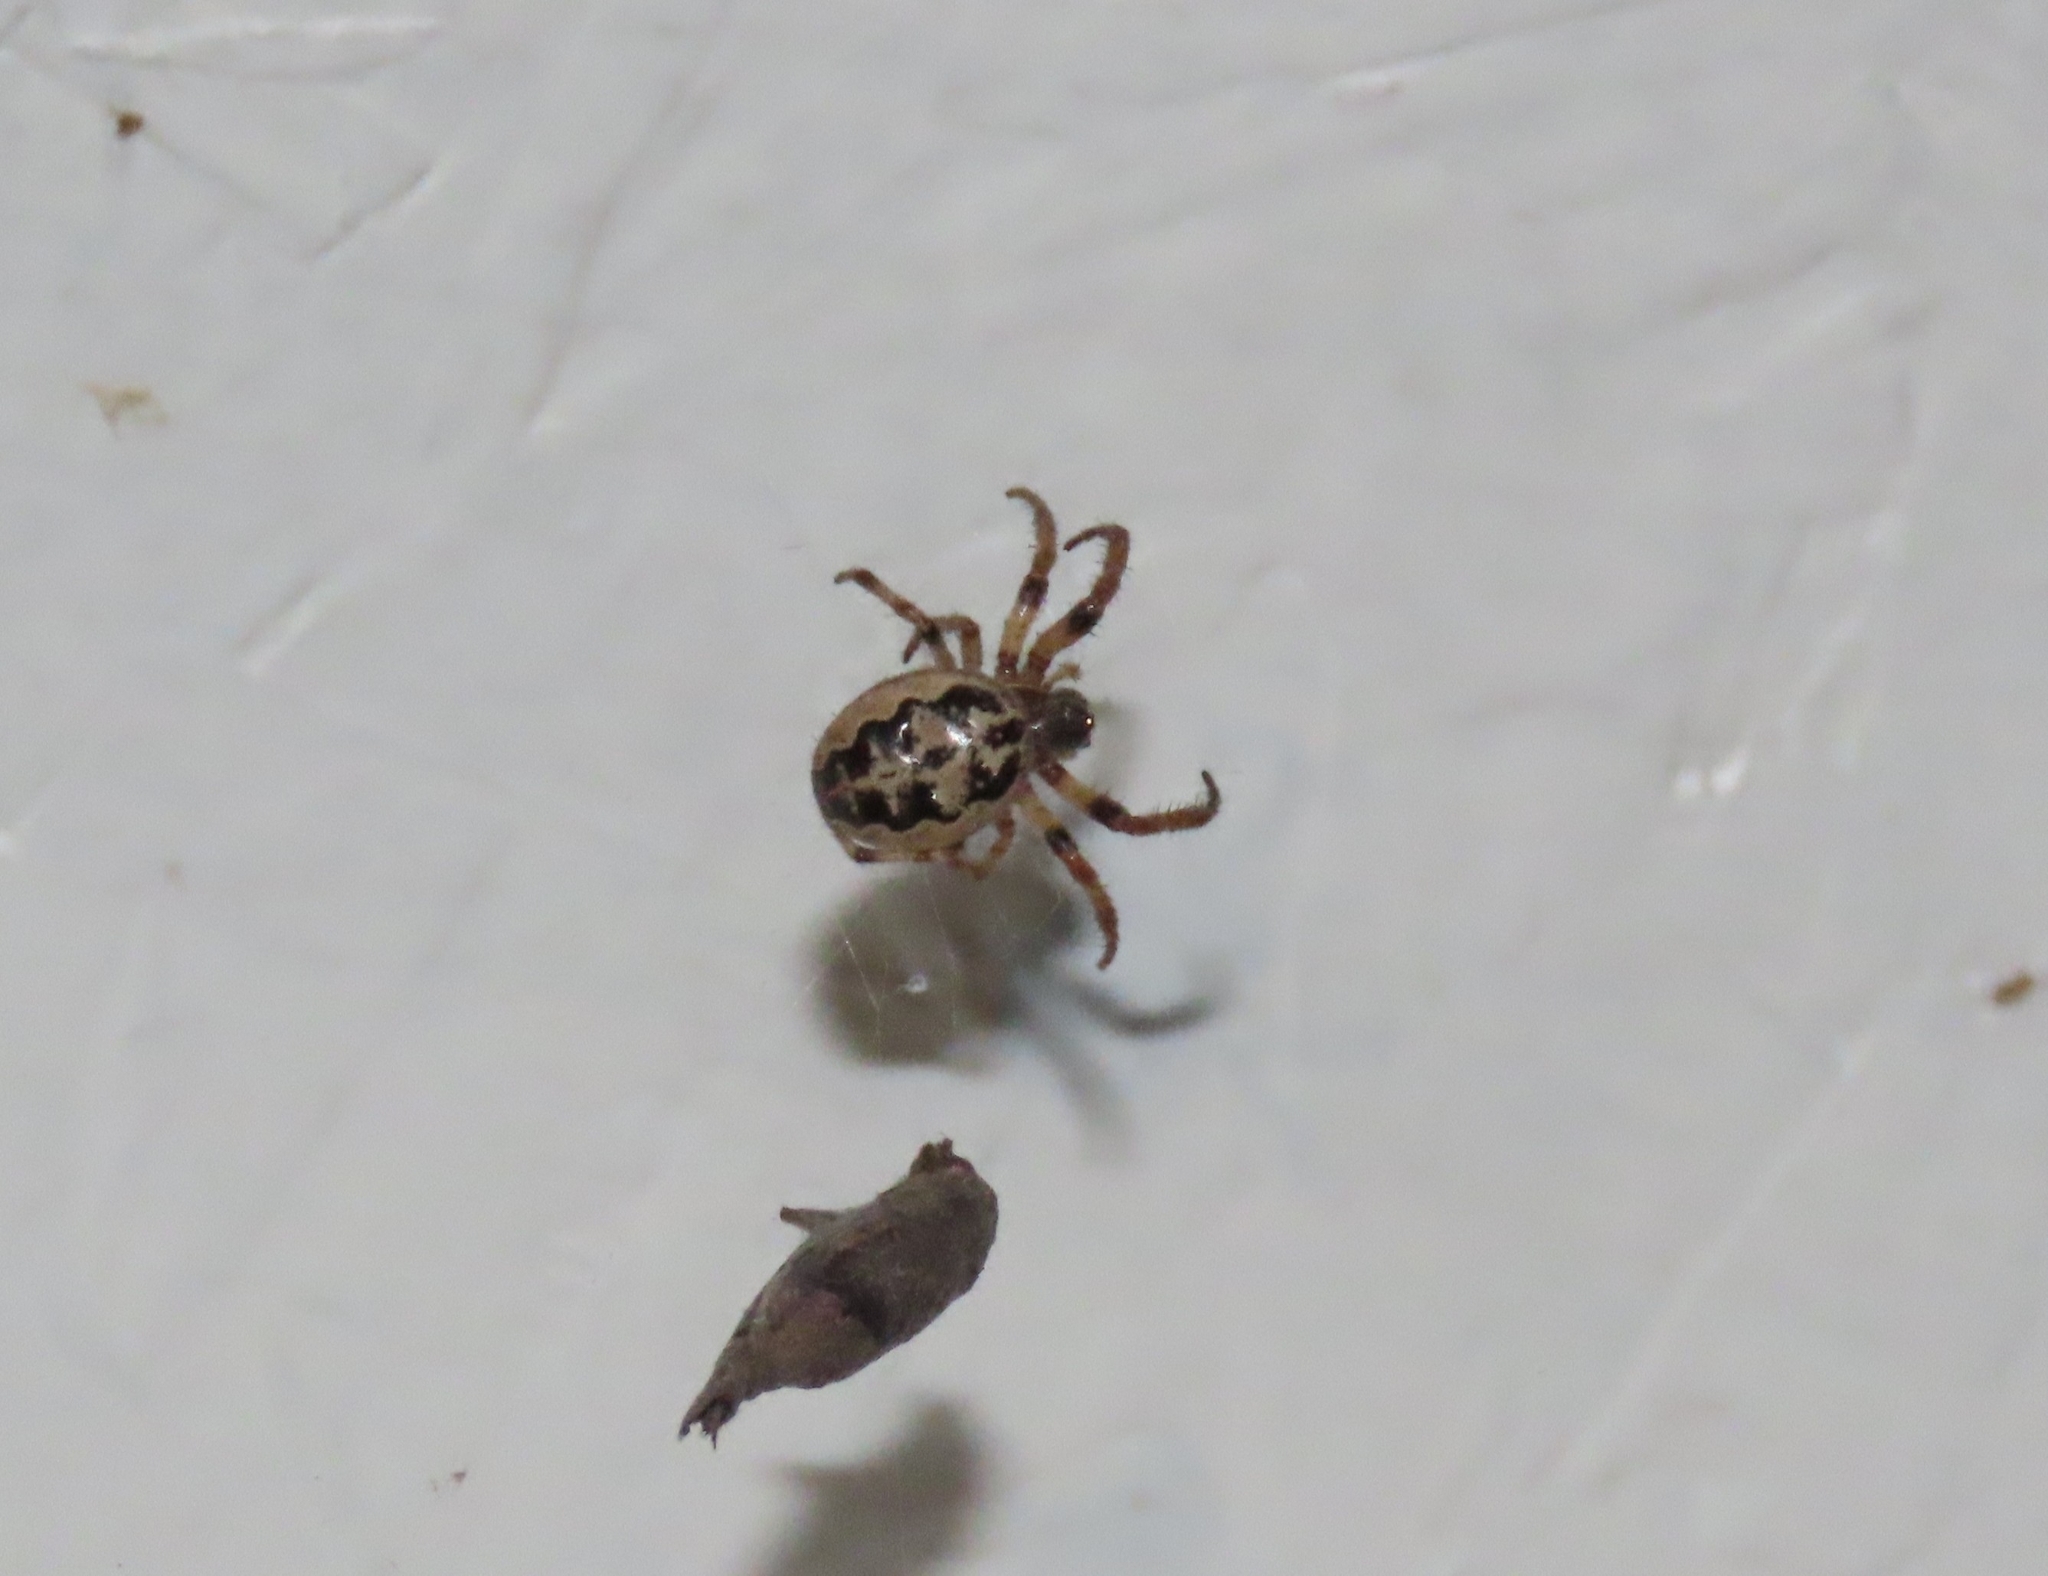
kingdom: Animalia
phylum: Arthropoda
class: Arachnida
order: Araneae
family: Araneidae
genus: Larinioides
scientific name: Larinioides cornutus
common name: Furrow orbweaver
